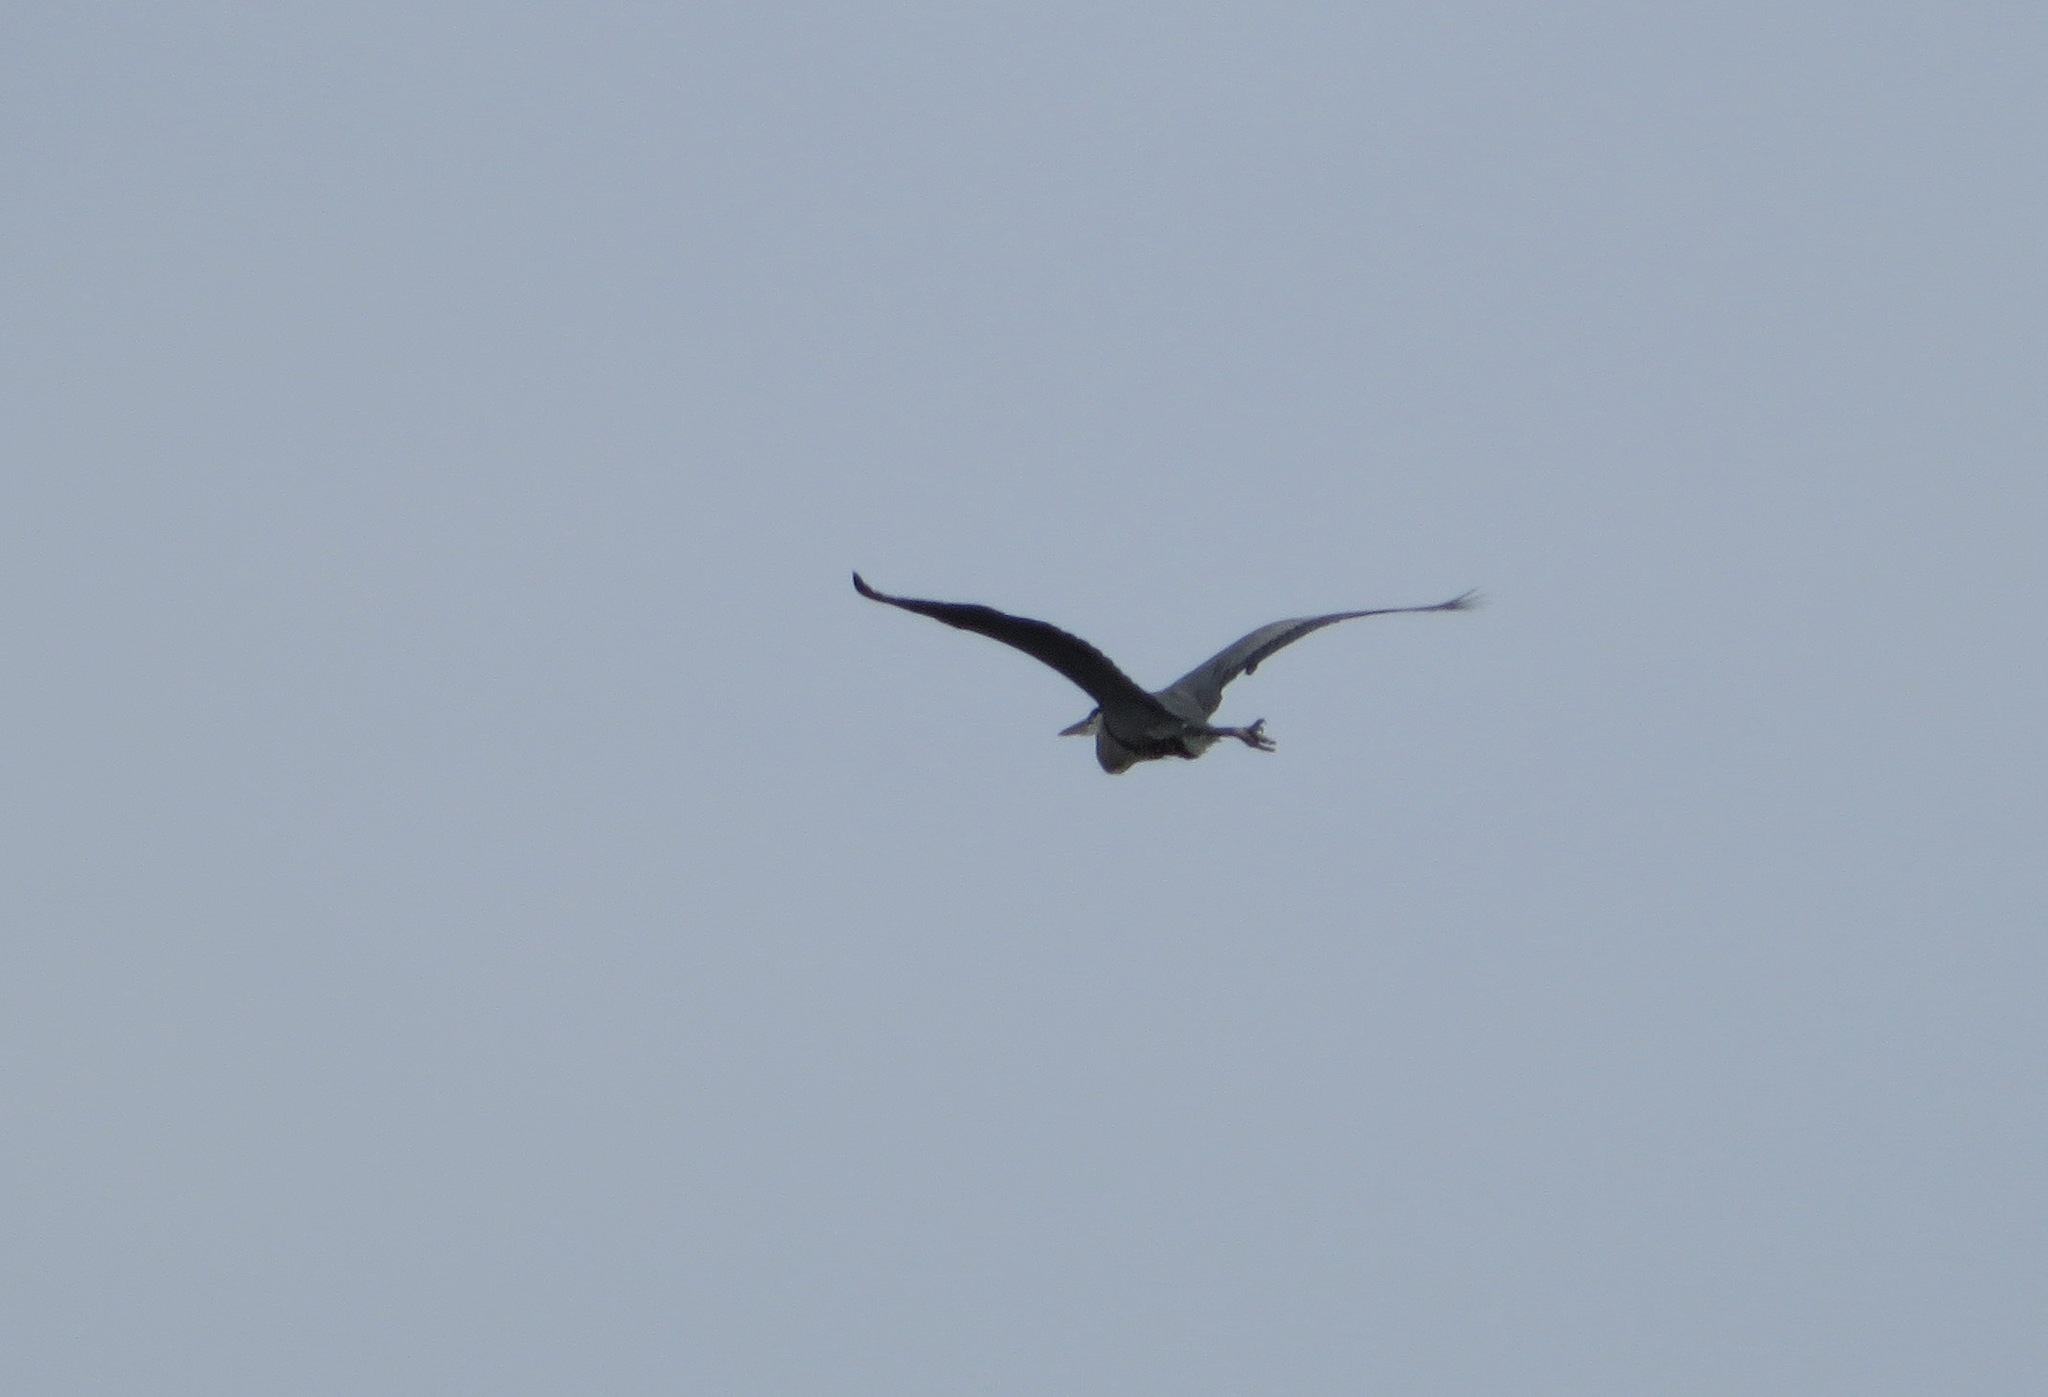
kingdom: Animalia
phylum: Chordata
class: Aves
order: Pelecaniformes
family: Ardeidae
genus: Ardea
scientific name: Ardea herodias
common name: Great blue heron
